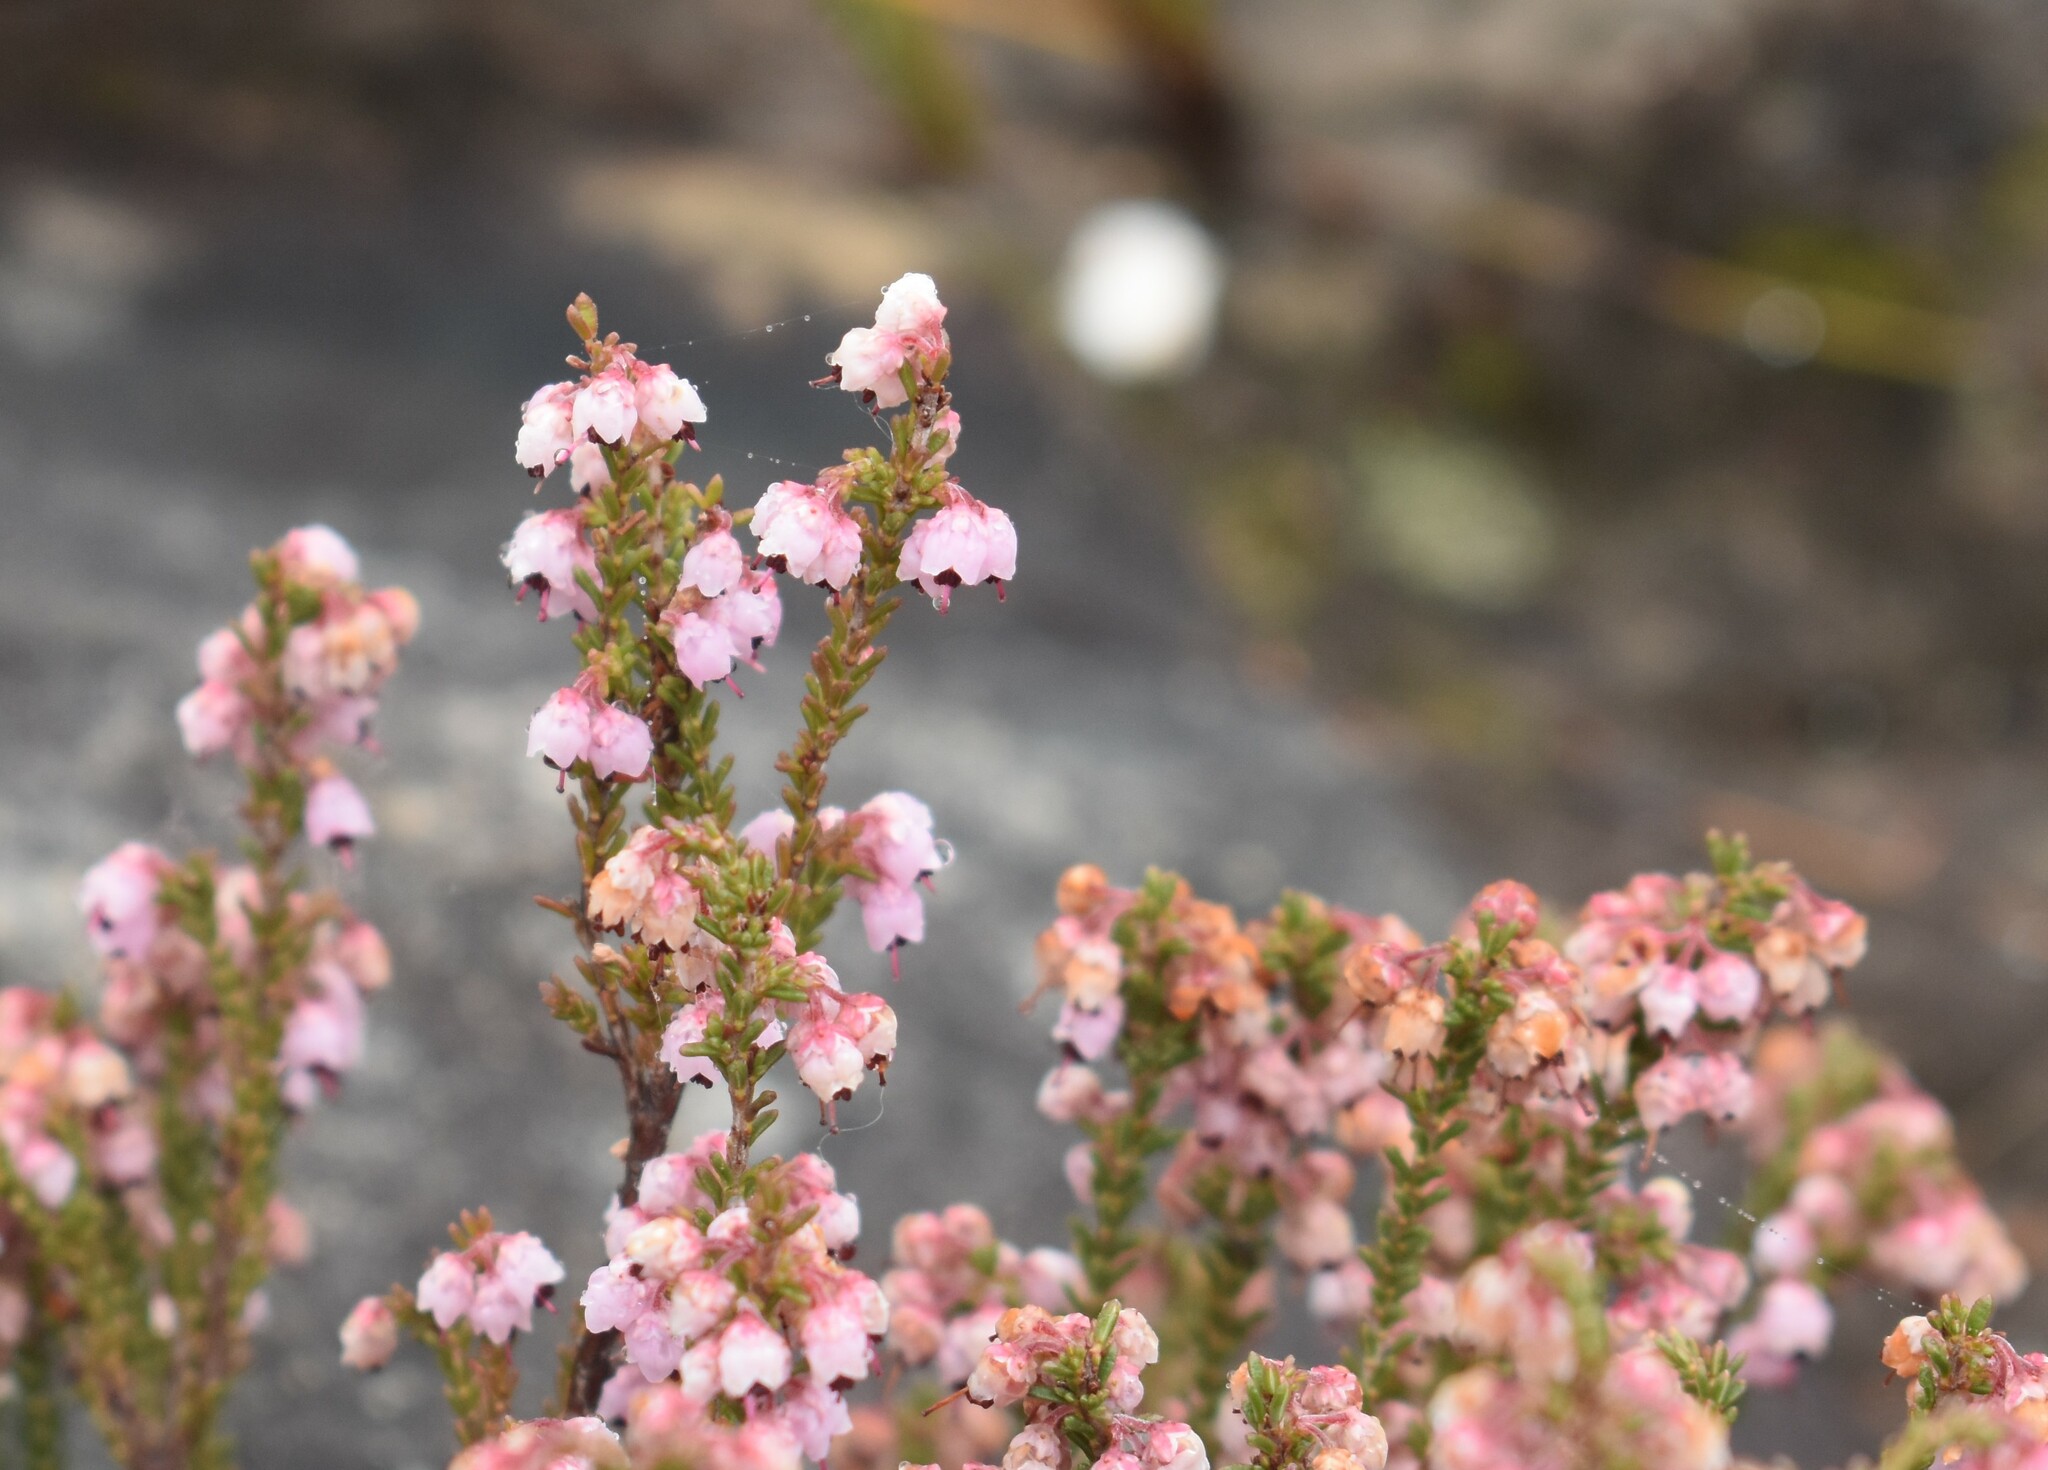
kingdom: Plantae
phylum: Tracheophyta
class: Magnoliopsida
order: Ericales
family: Ericaceae
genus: Erica
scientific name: Erica umbelliflora
